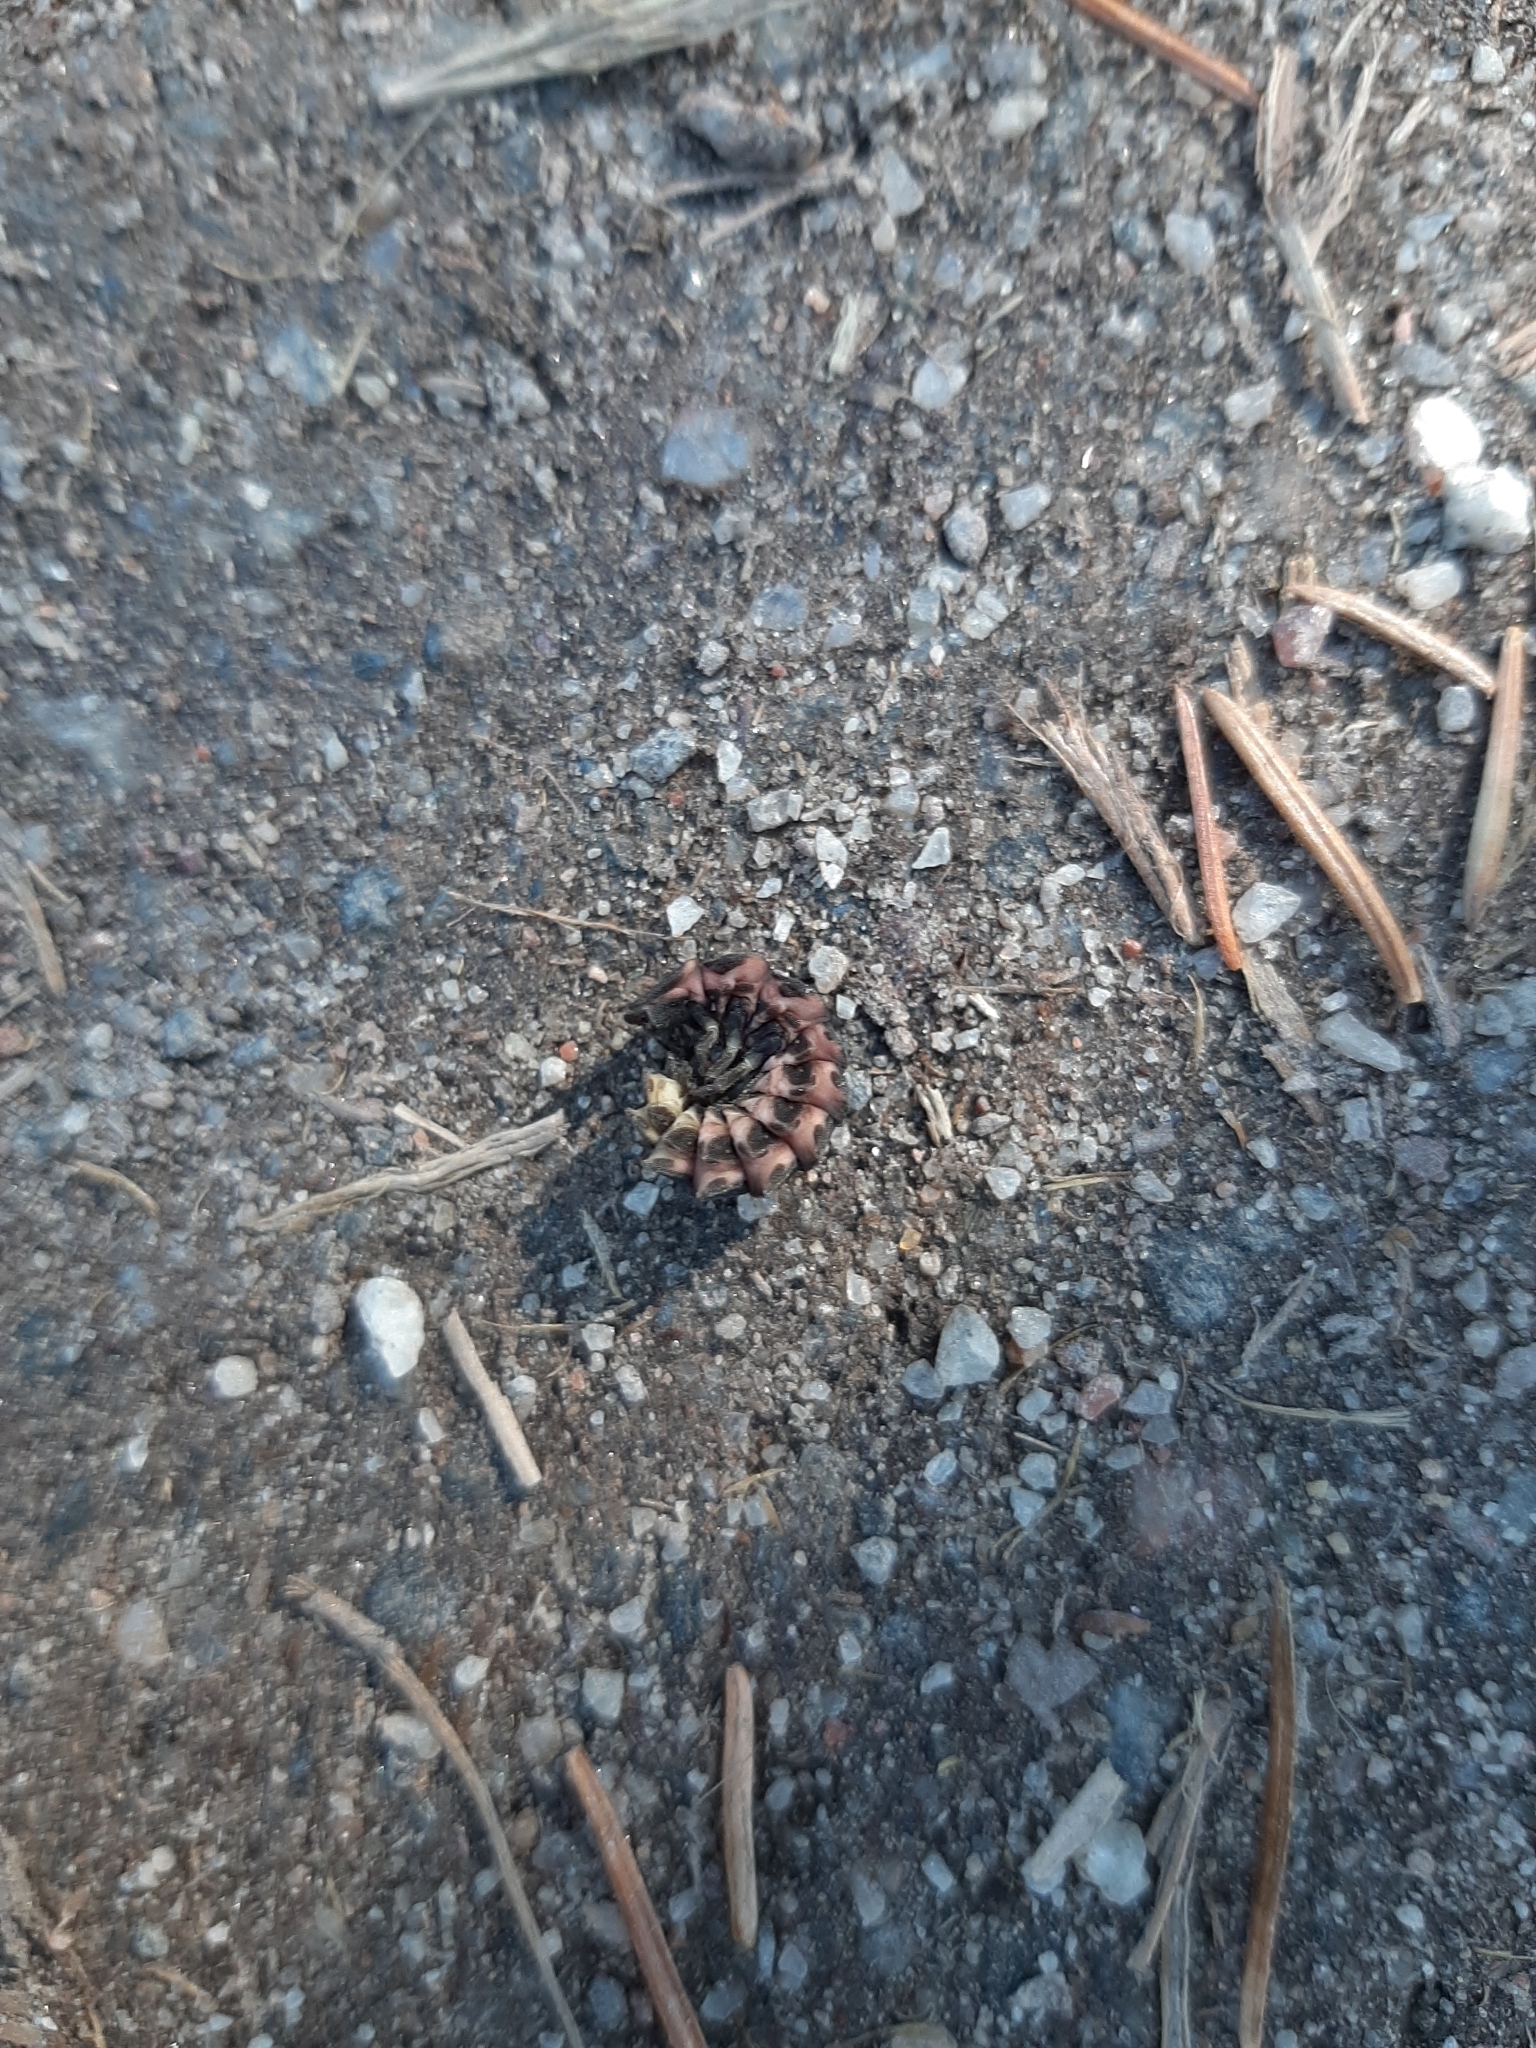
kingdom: Animalia
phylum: Arthropoda
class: Insecta
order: Coleoptera
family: Lampyridae
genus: Lampyris
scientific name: Lampyris noctiluca
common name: Glow-worm
